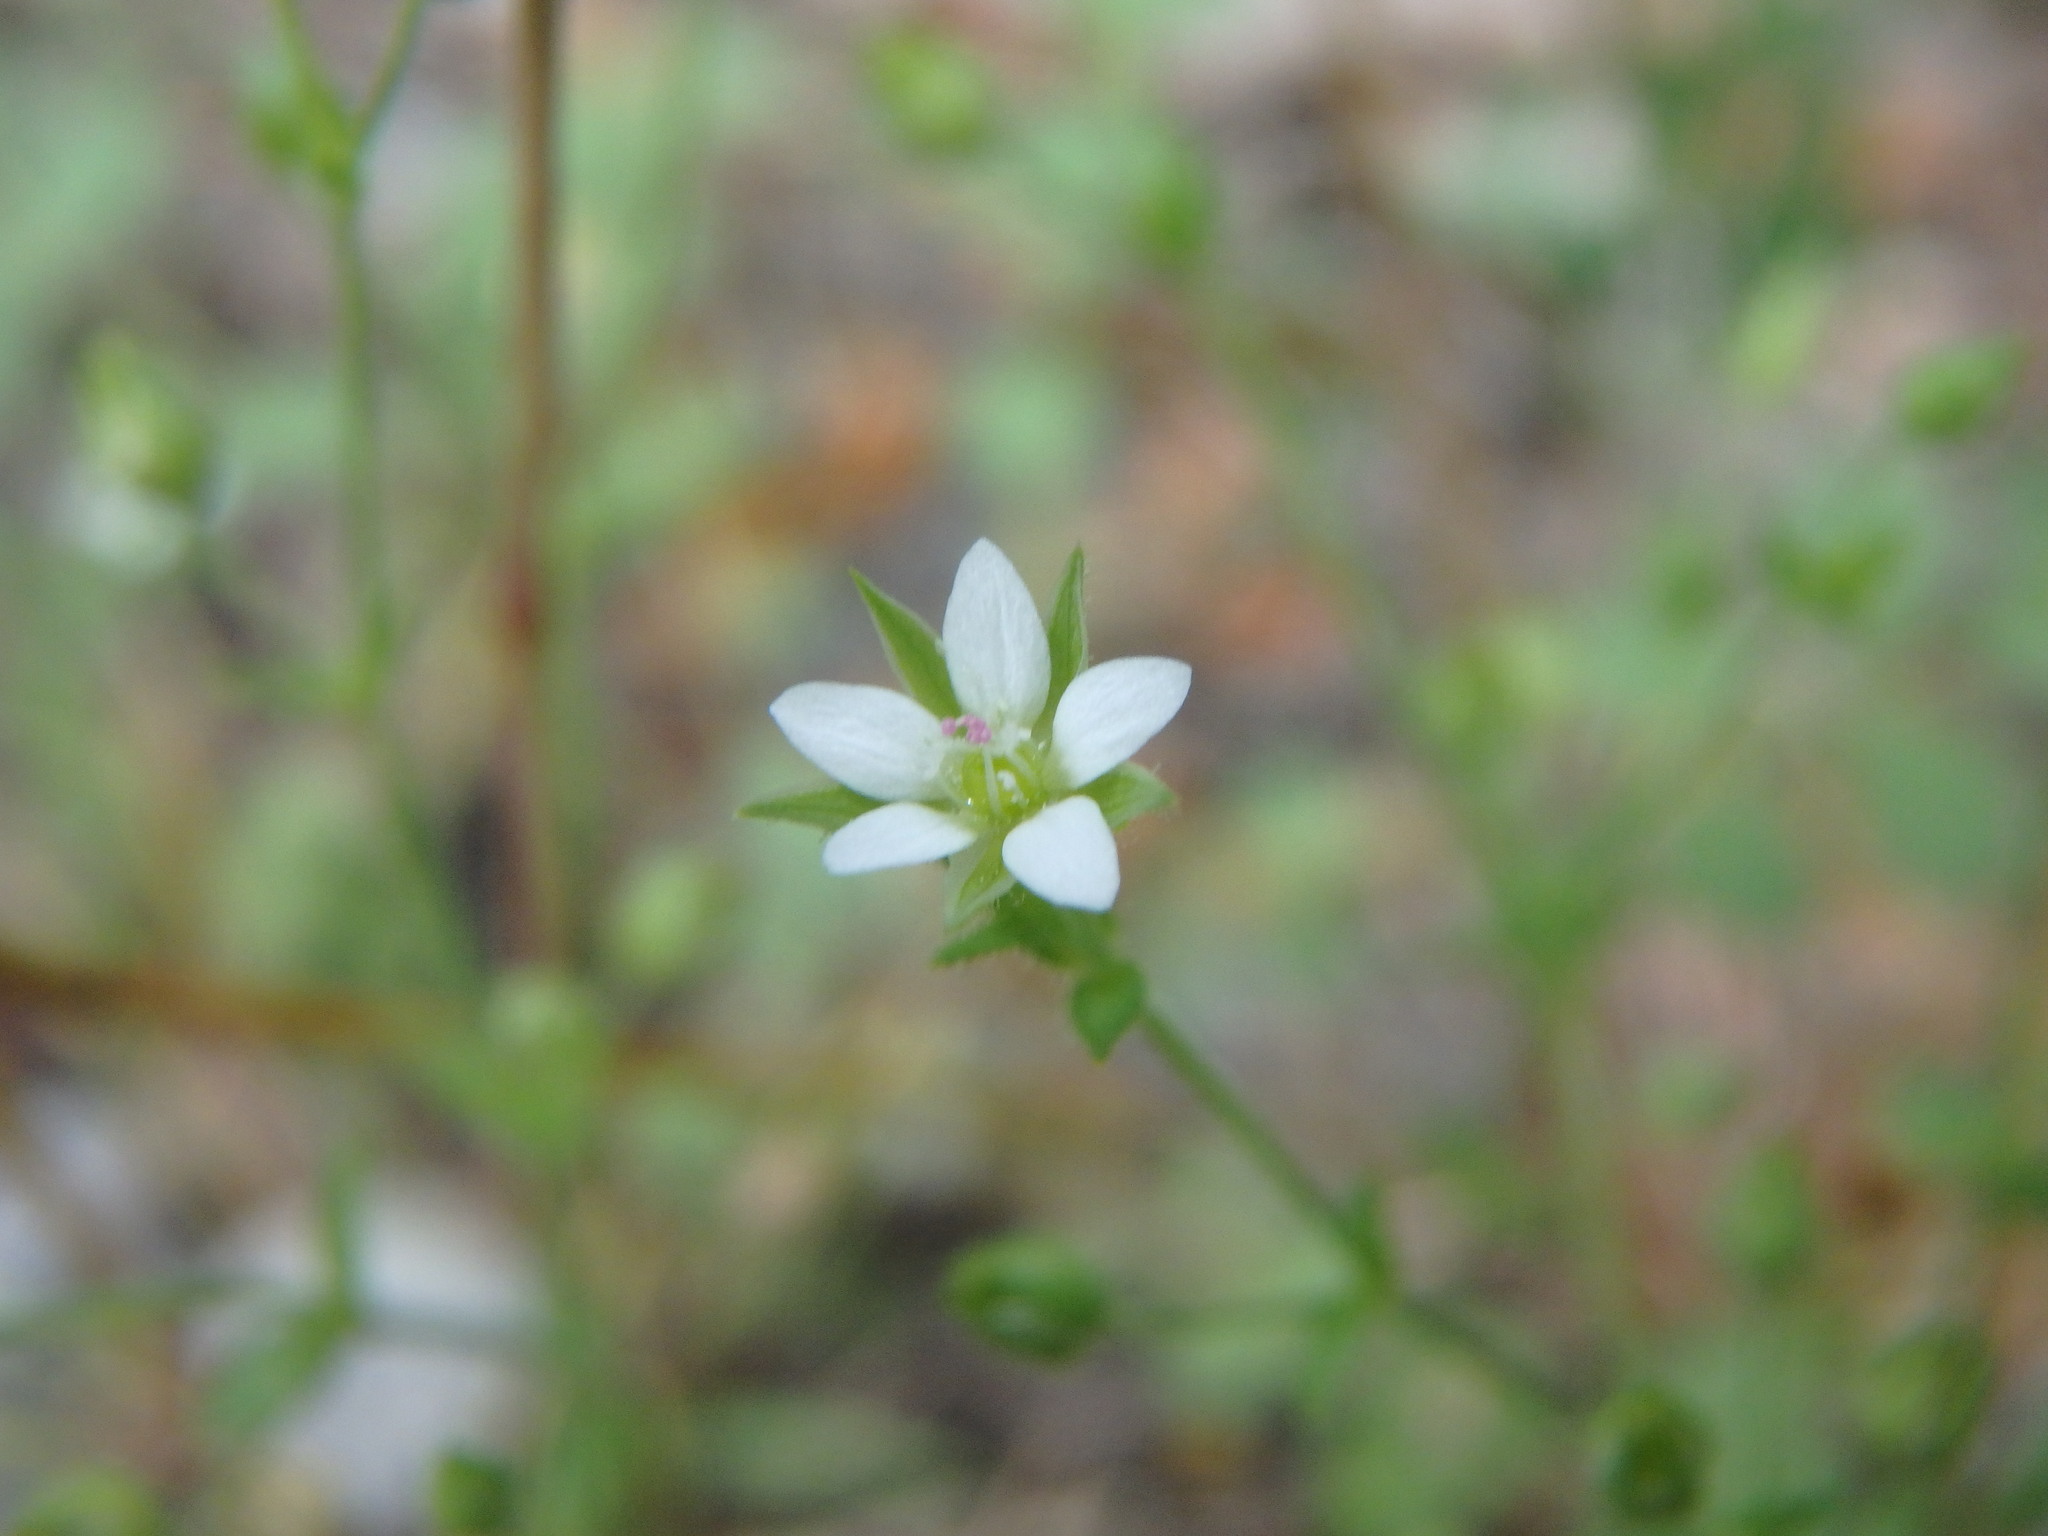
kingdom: Plantae
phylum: Tracheophyta
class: Magnoliopsida
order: Caryophyllales
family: Caryophyllaceae
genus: Arenaria
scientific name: Arenaria serpyllifolia
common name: Thyme-leaved sandwort
